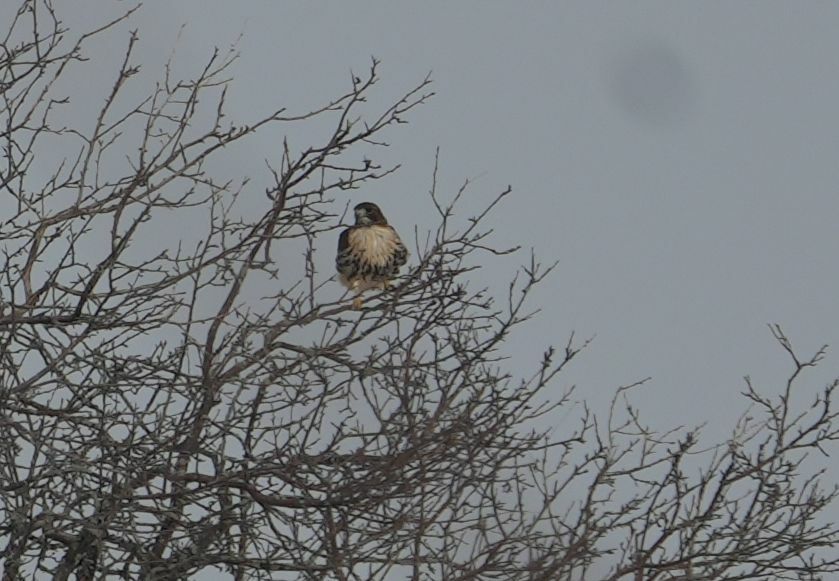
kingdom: Animalia
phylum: Chordata
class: Aves
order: Accipitriformes
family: Accipitridae
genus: Buteo
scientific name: Buteo jamaicensis
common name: Red-tailed hawk
